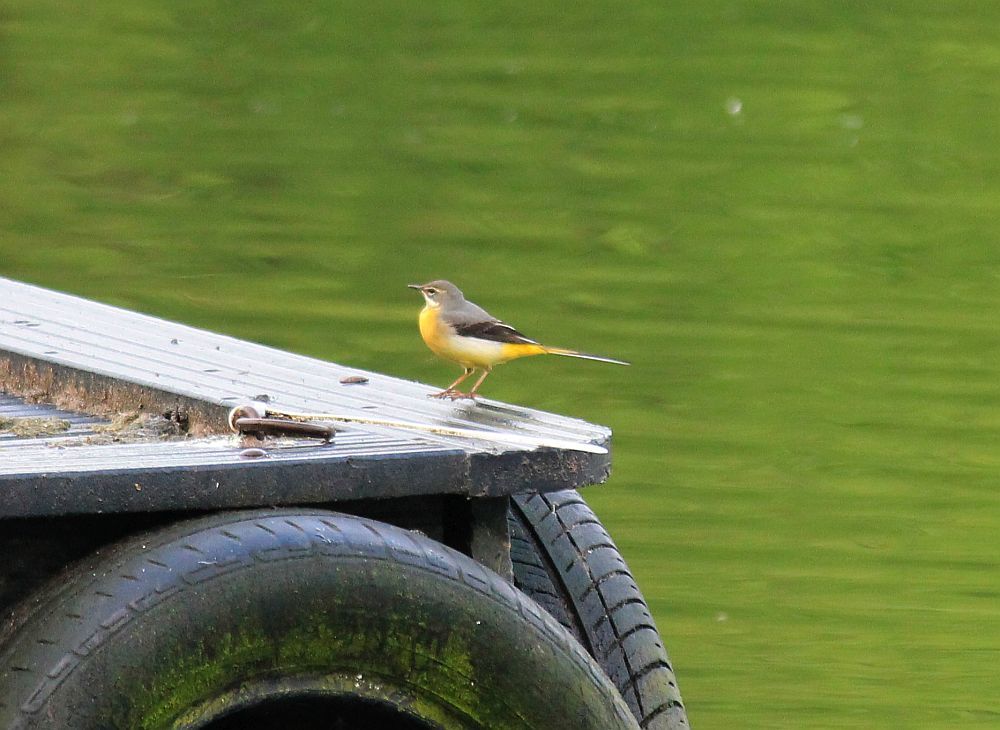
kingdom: Animalia
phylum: Chordata
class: Aves
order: Passeriformes
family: Motacillidae
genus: Motacilla
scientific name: Motacilla cinerea
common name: Grey wagtail
